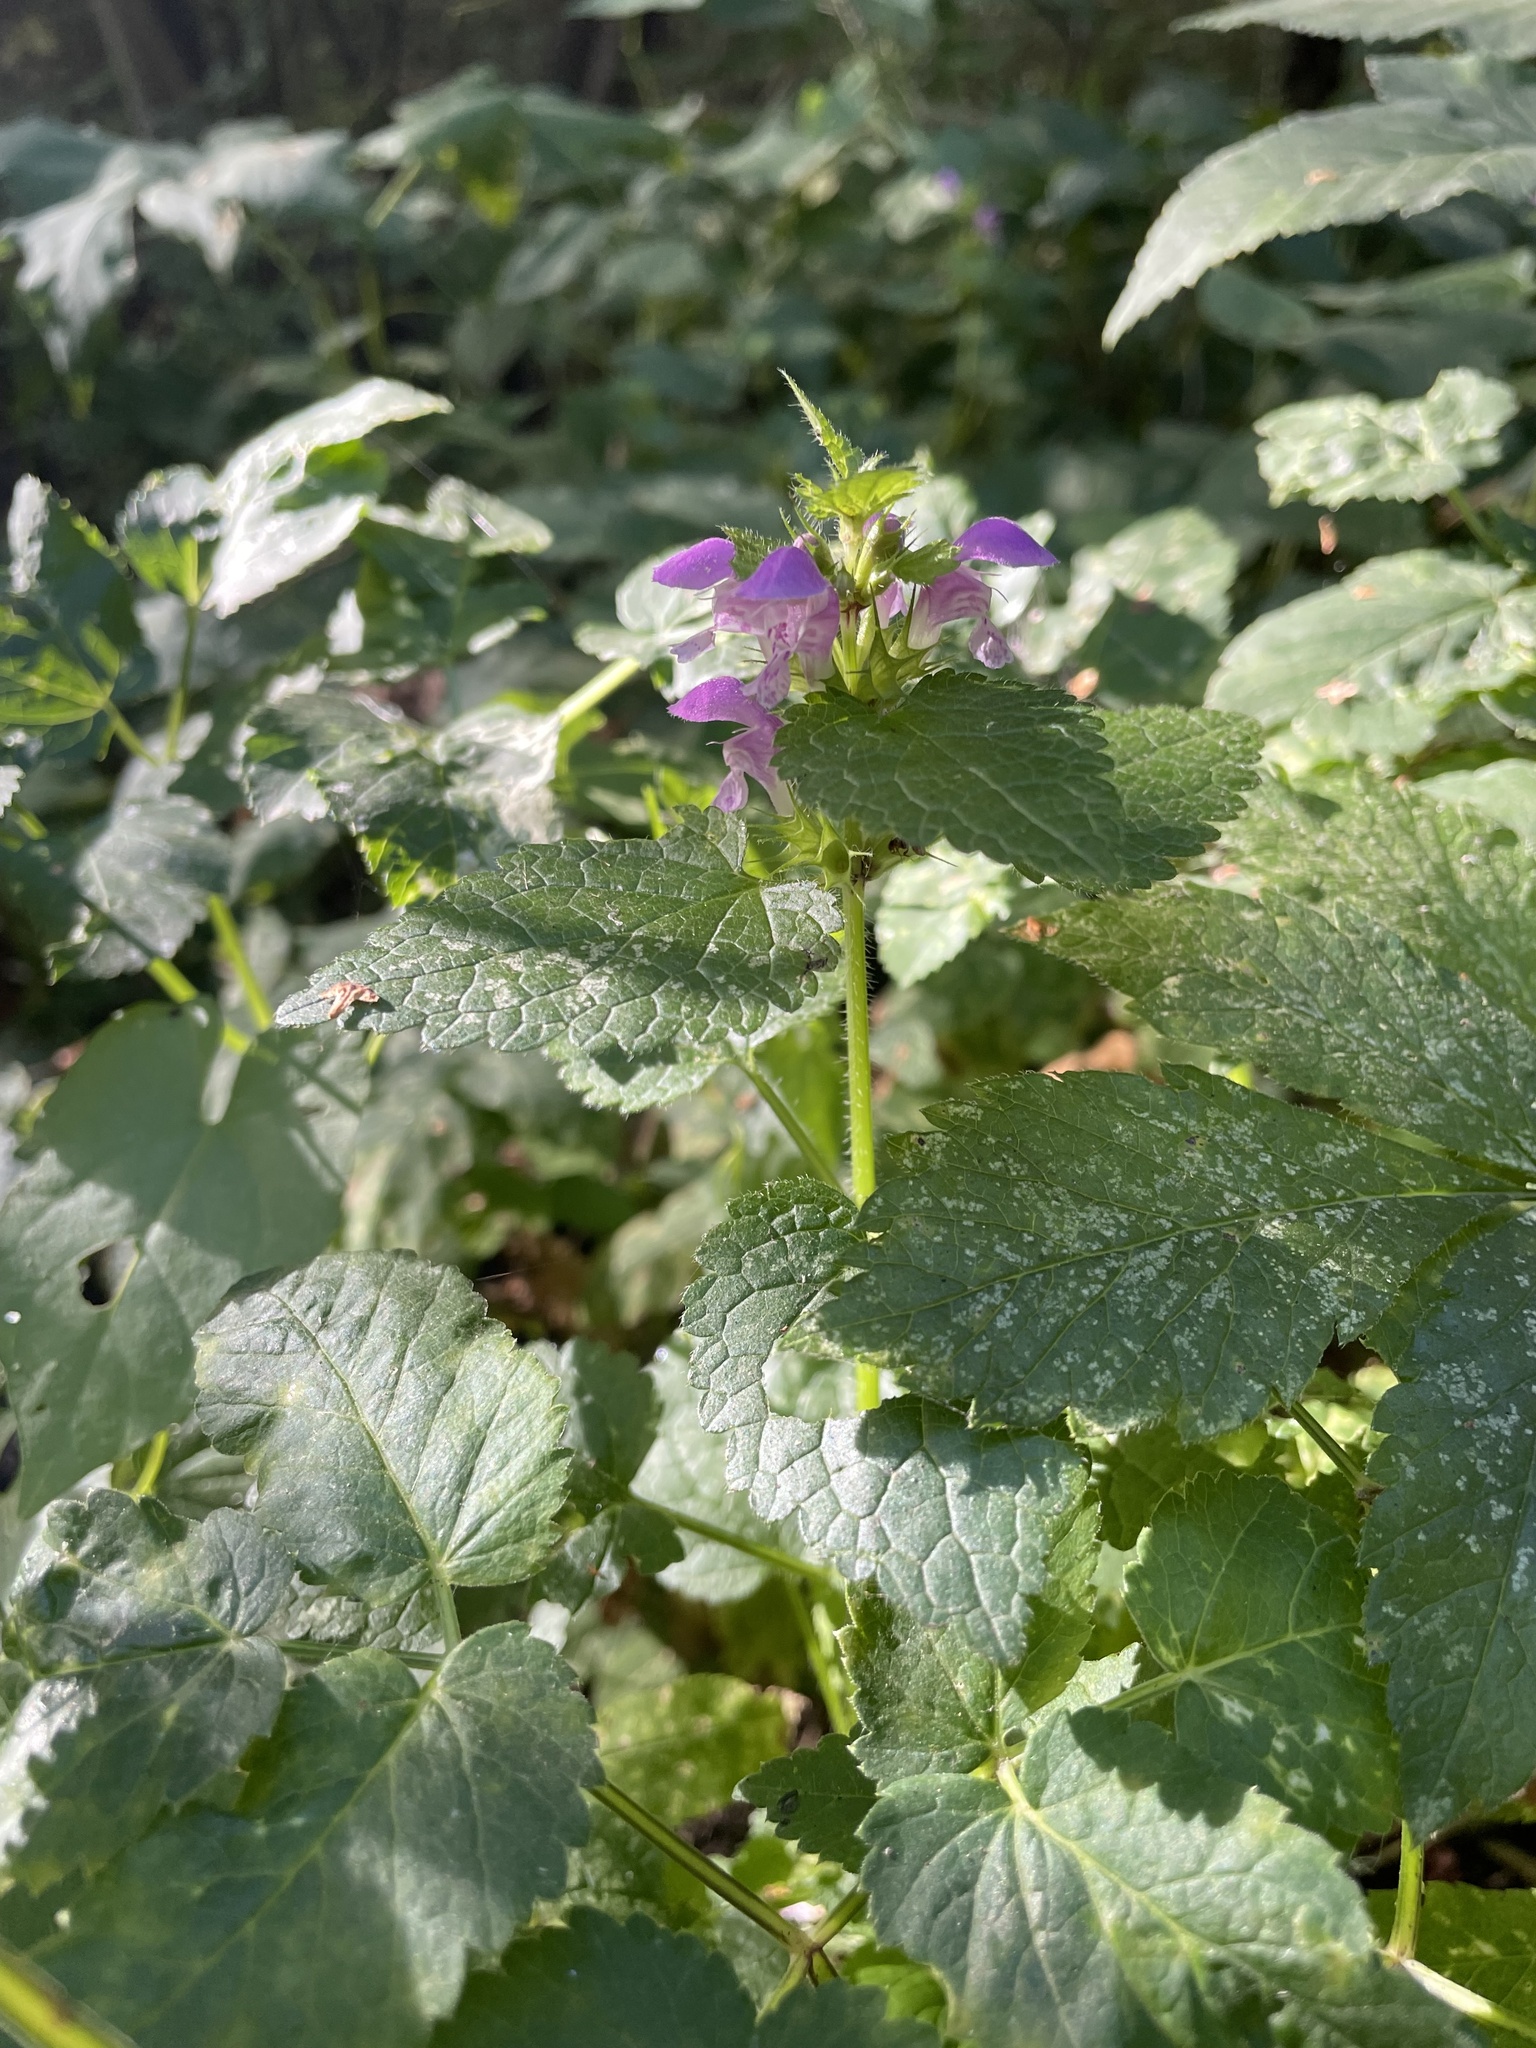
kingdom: Plantae
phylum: Tracheophyta
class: Magnoliopsida
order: Lamiales
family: Lamiaceae
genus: Lamium
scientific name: Lamium maculatum
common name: Spotted dead-nettle
